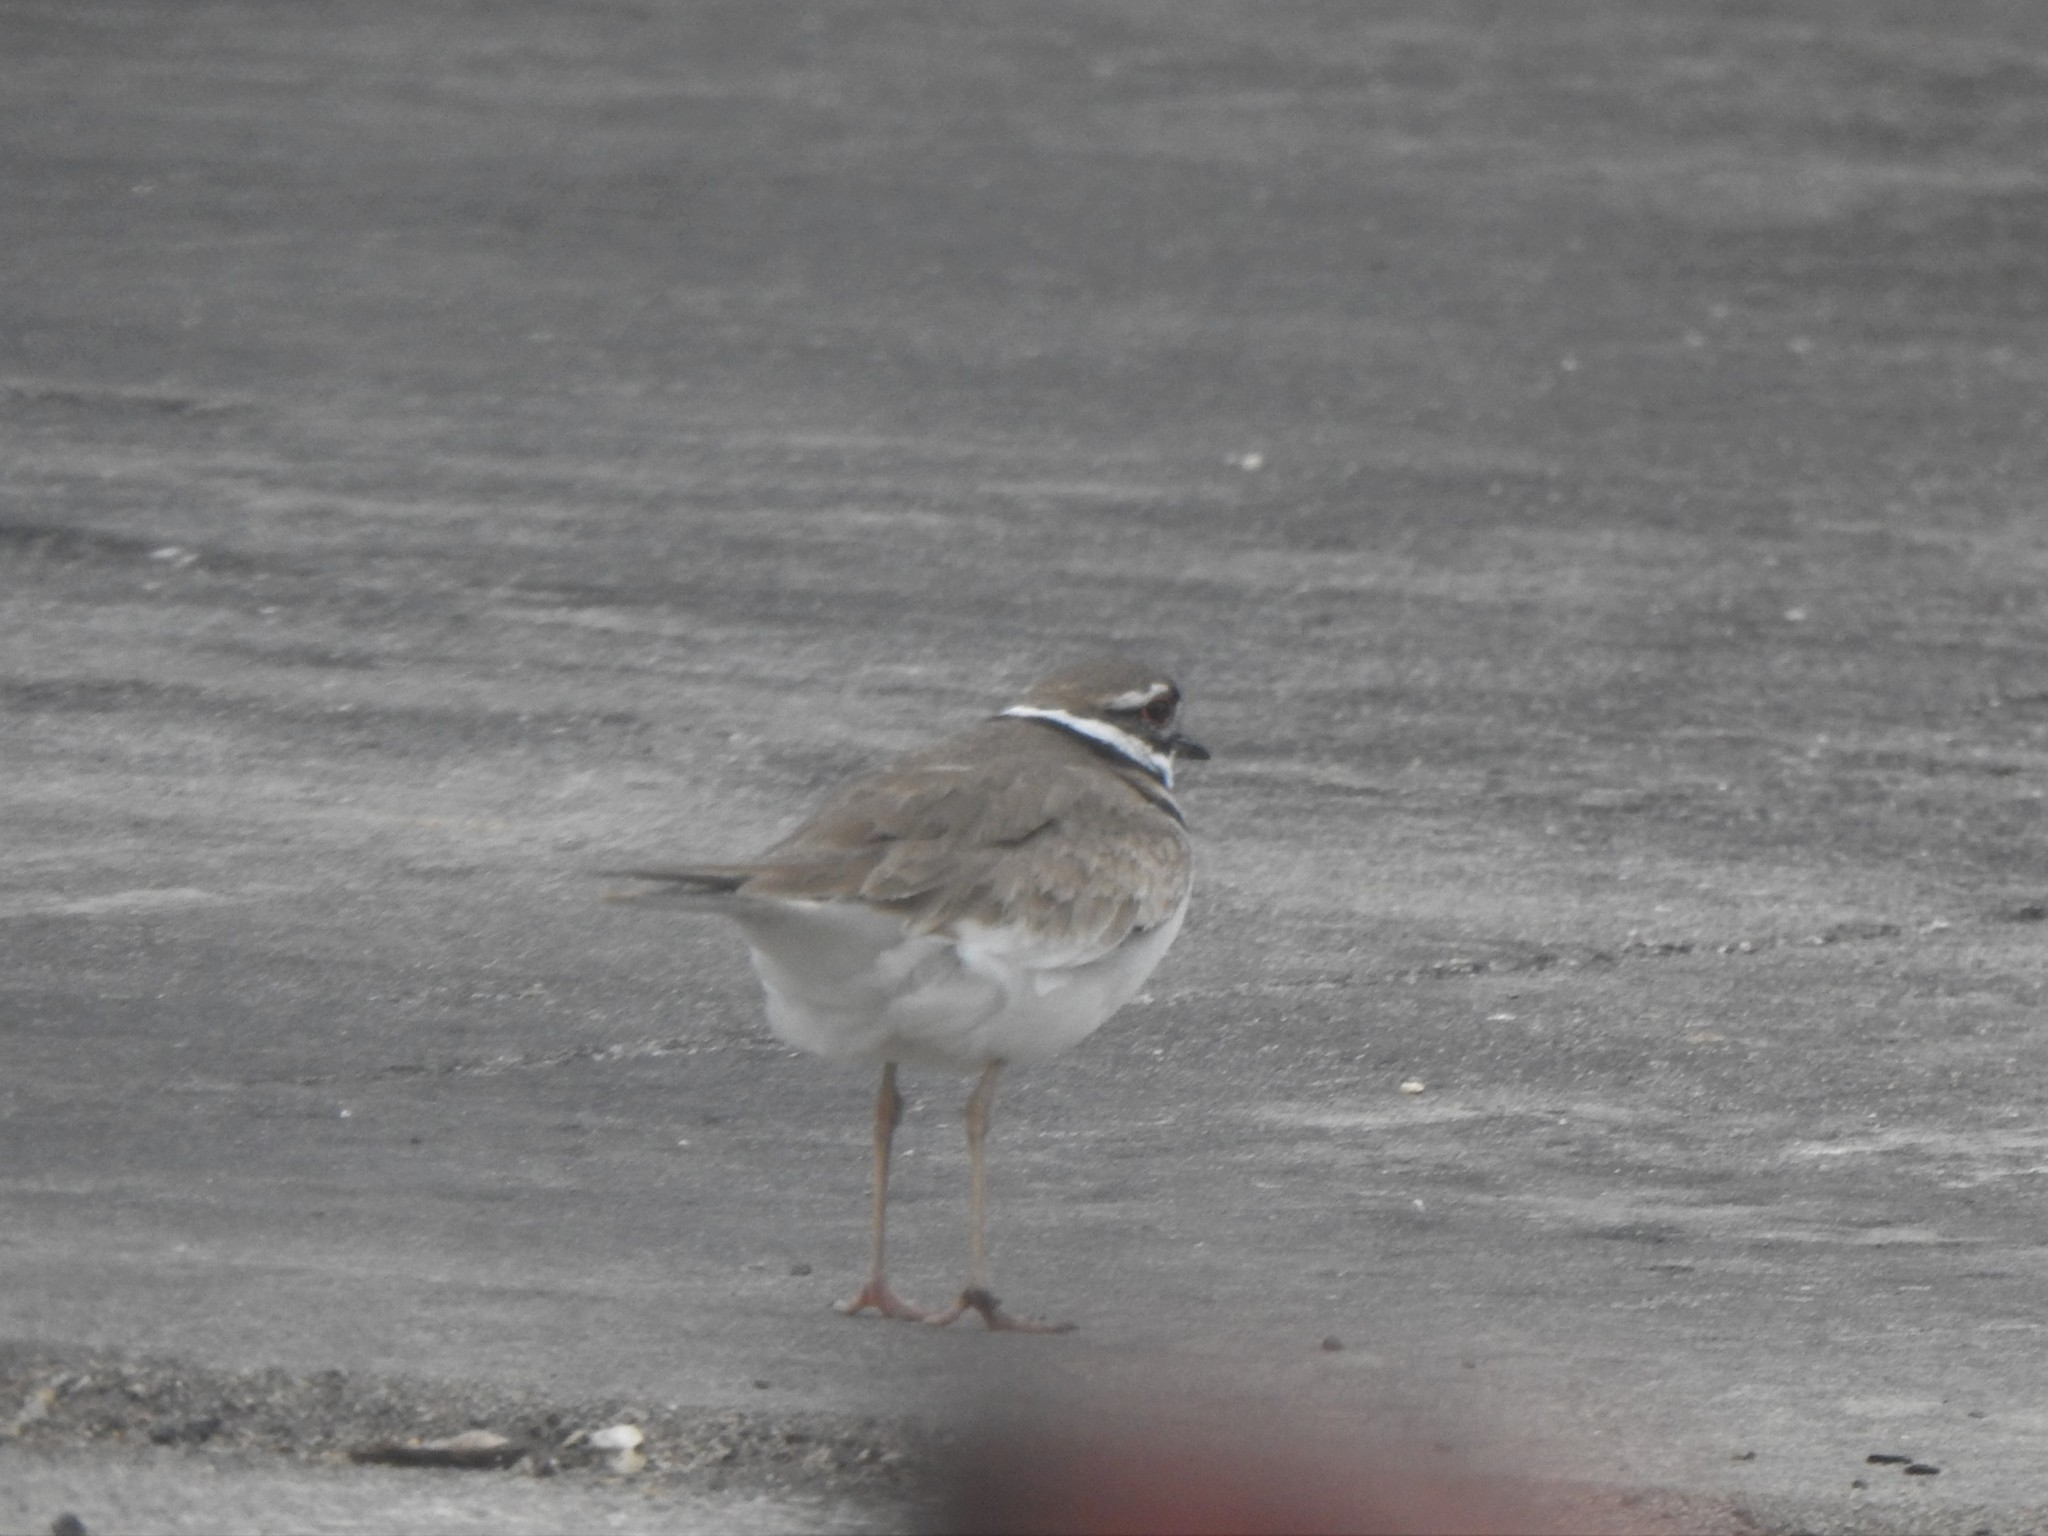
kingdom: Animalia
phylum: Chordata
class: Aves
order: Charadriiformes
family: Charadriidae
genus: Charadrius
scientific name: Charadrius vociferus
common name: Killdeer
